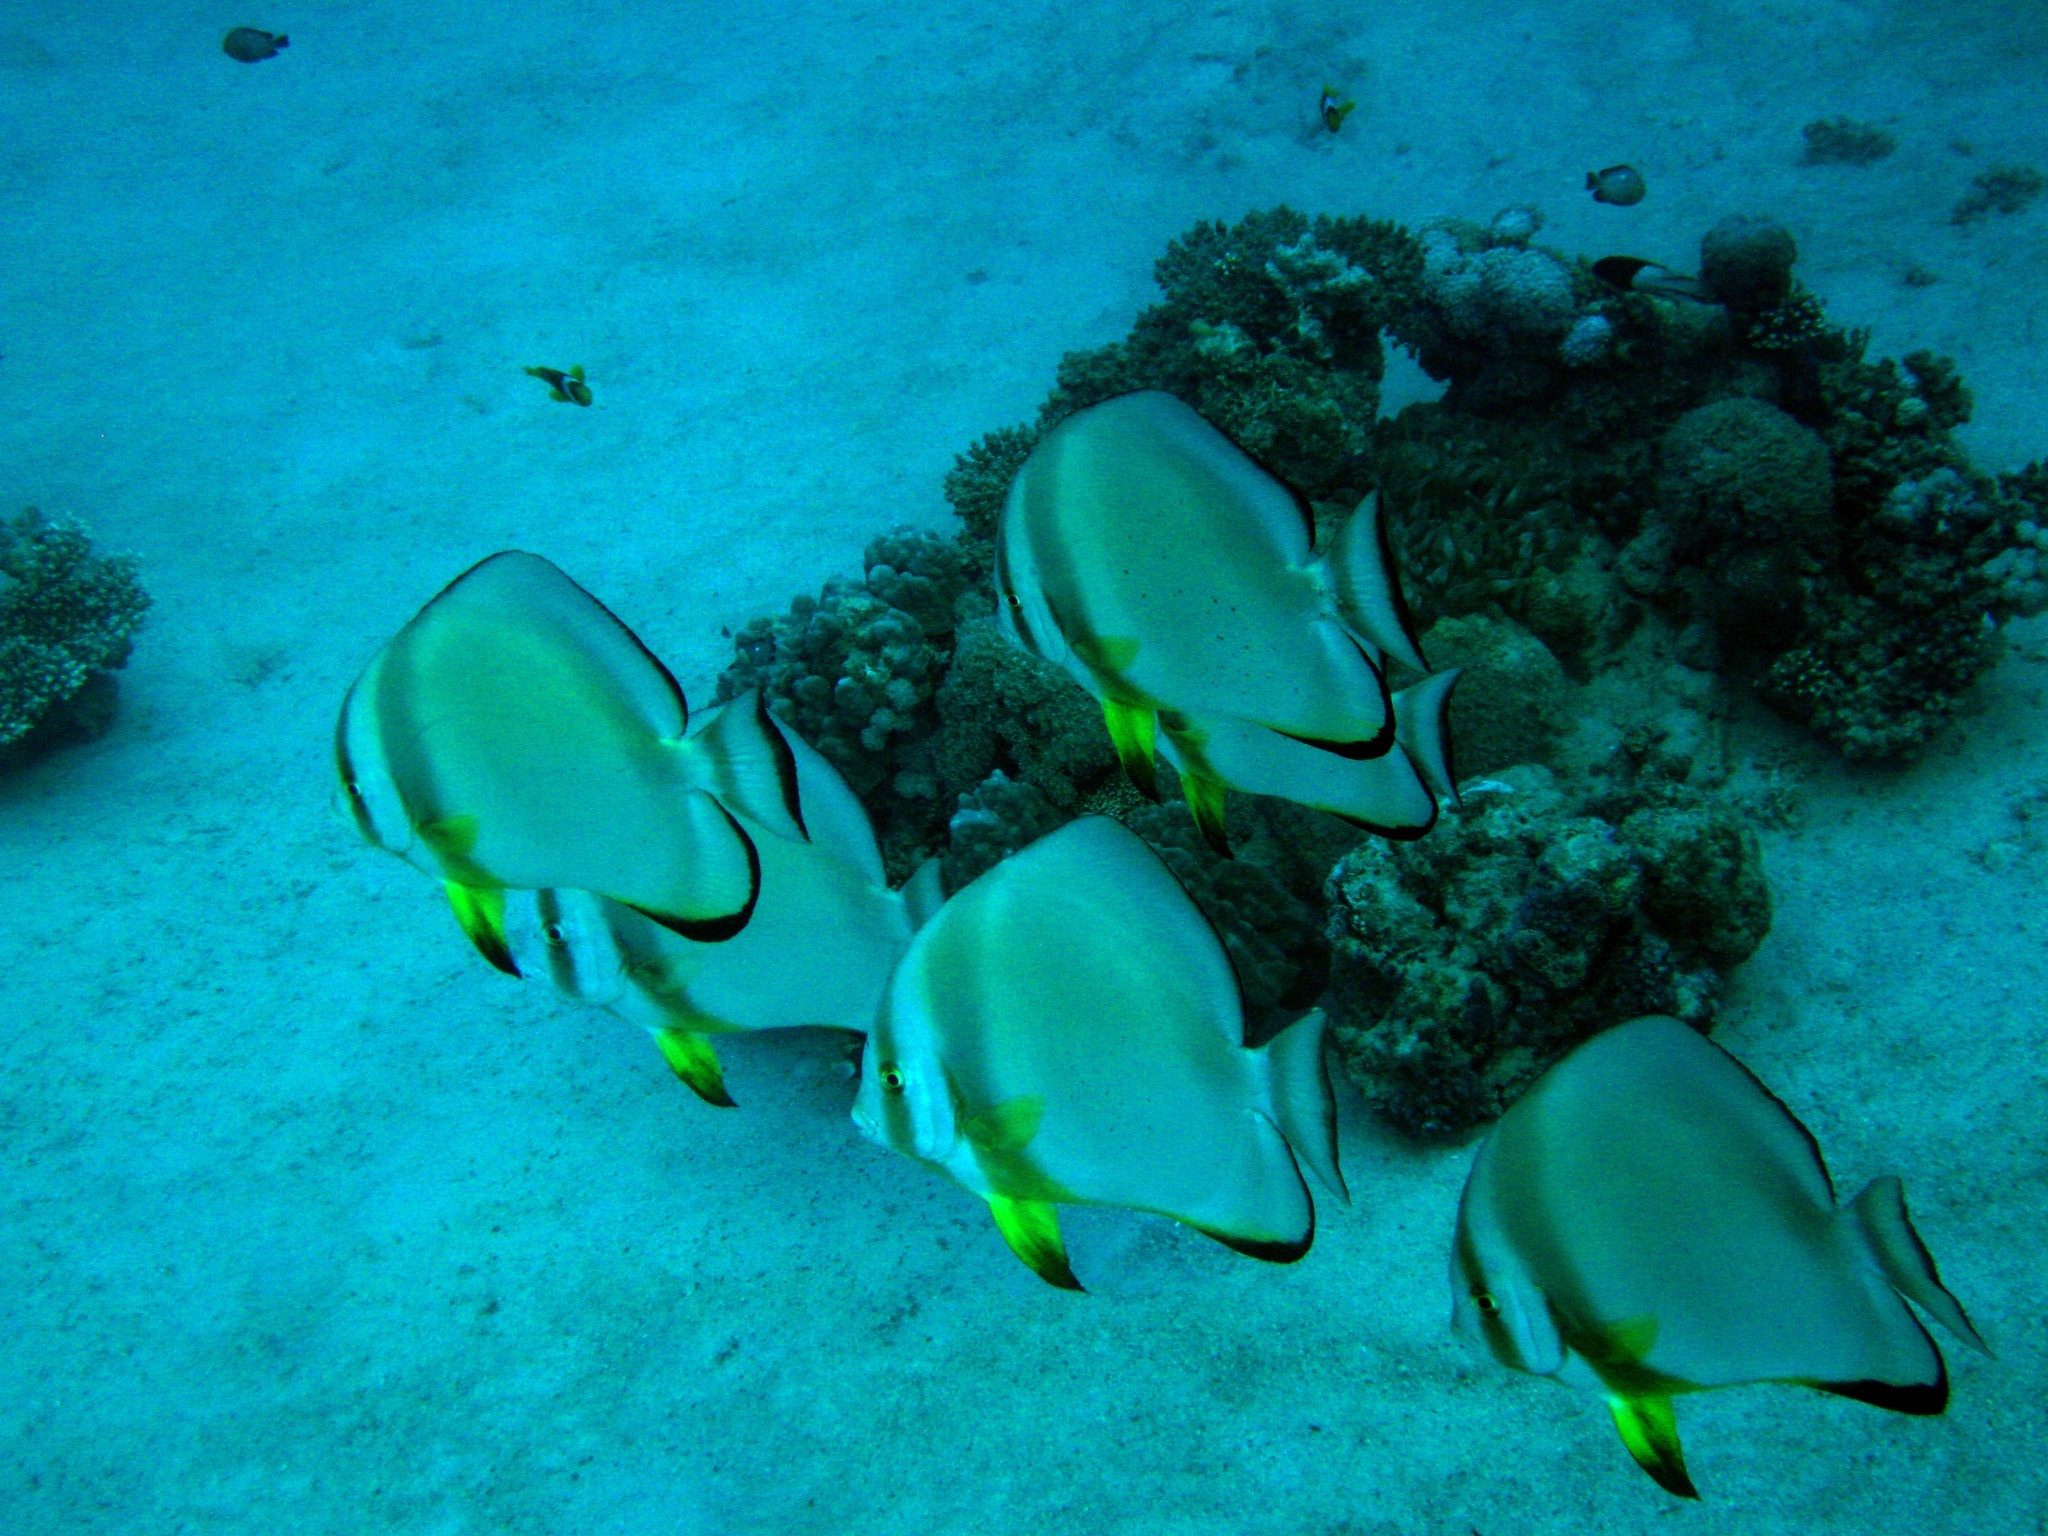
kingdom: Animalia
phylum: Chordata
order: Perciformes
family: Ephippidae
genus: Platax
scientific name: Platax orbicularis
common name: Batfish
